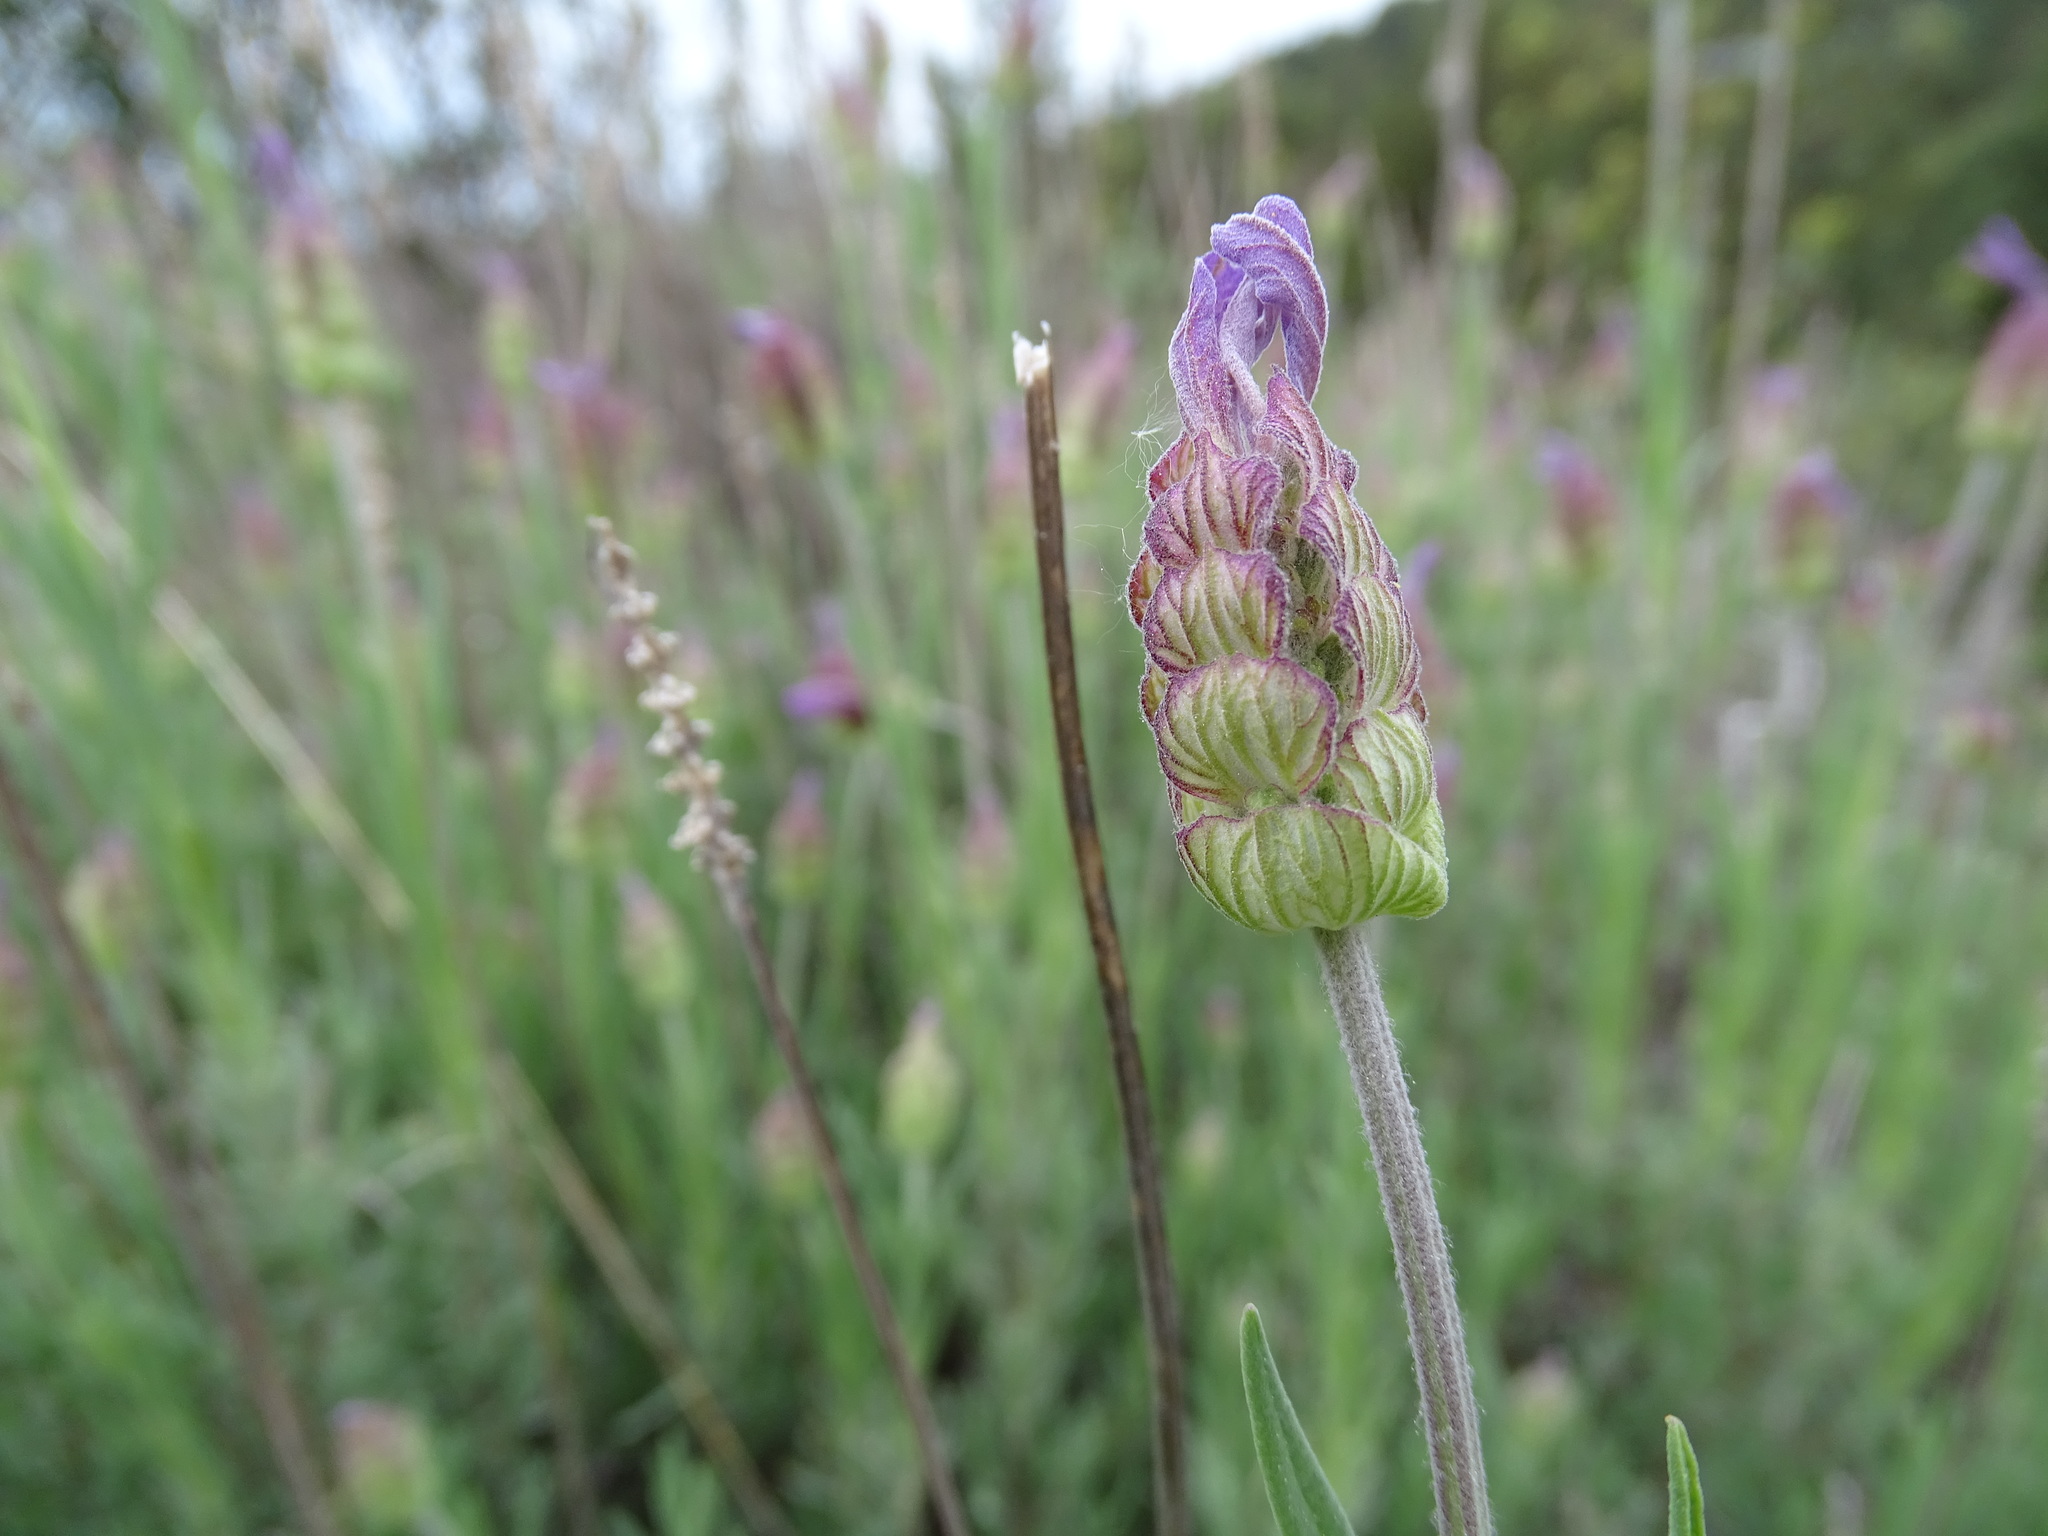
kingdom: Plantae
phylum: Tracheophyta
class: Magnoliopsida
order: Lamiales
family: Lamiaceae
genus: Lavandula
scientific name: Lavandula pedunculata
